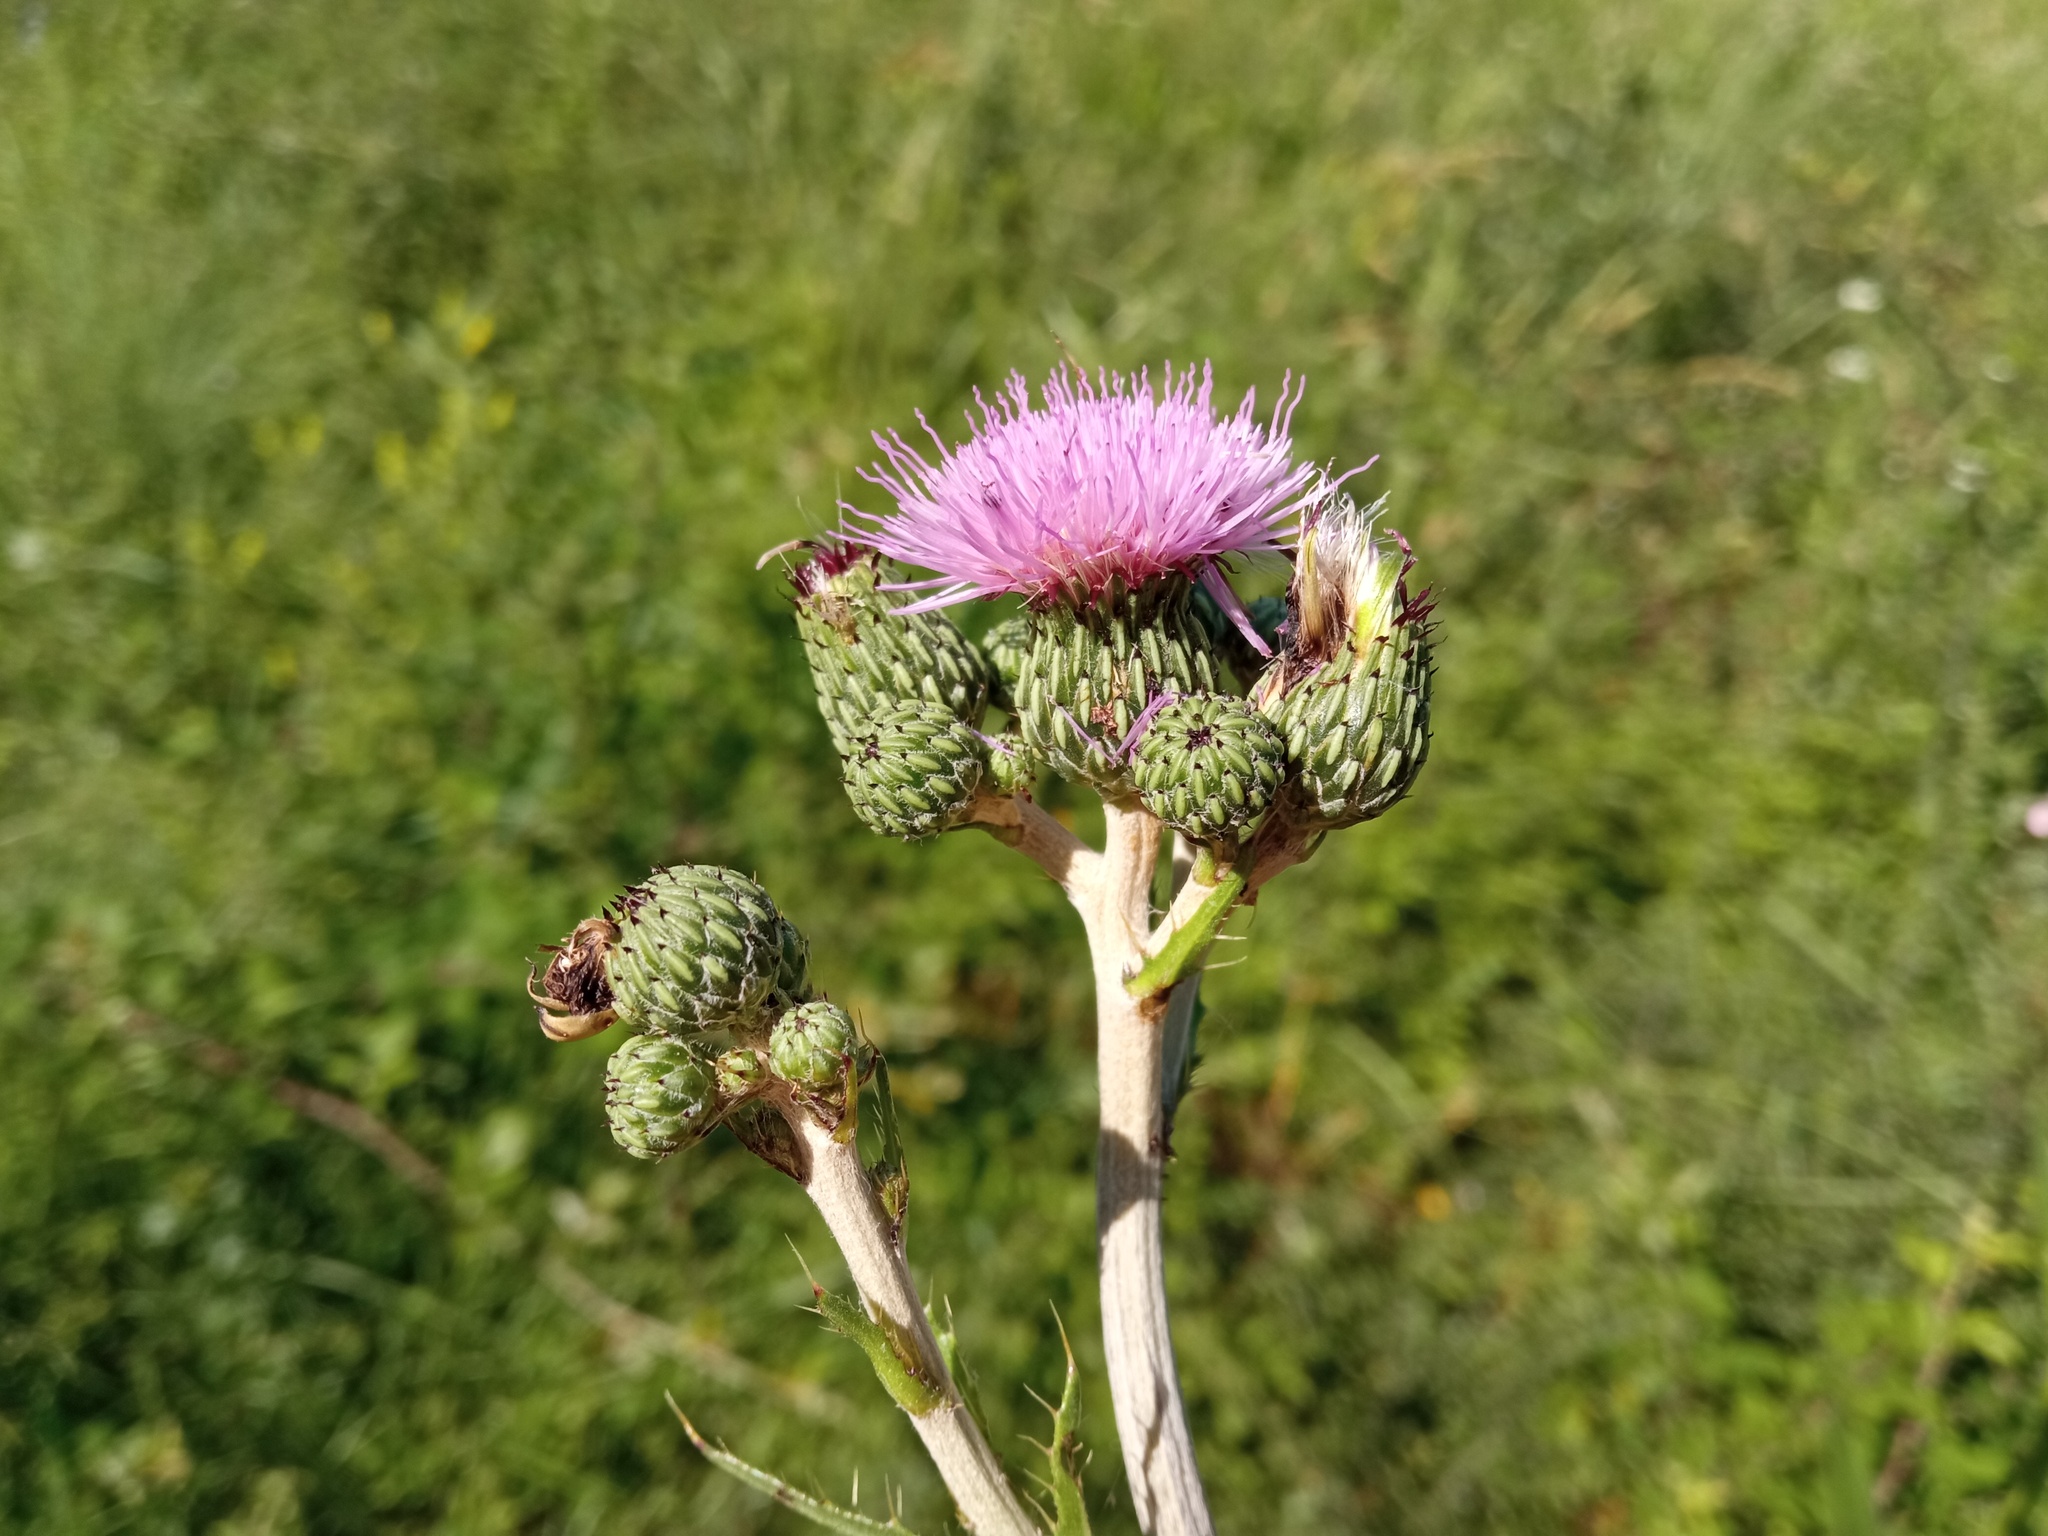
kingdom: Plantae
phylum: Tracheophyta
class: Magnoliopsida
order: Asterales
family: Asteraceae
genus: Cirsium
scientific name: Cirsium monspessulanum
